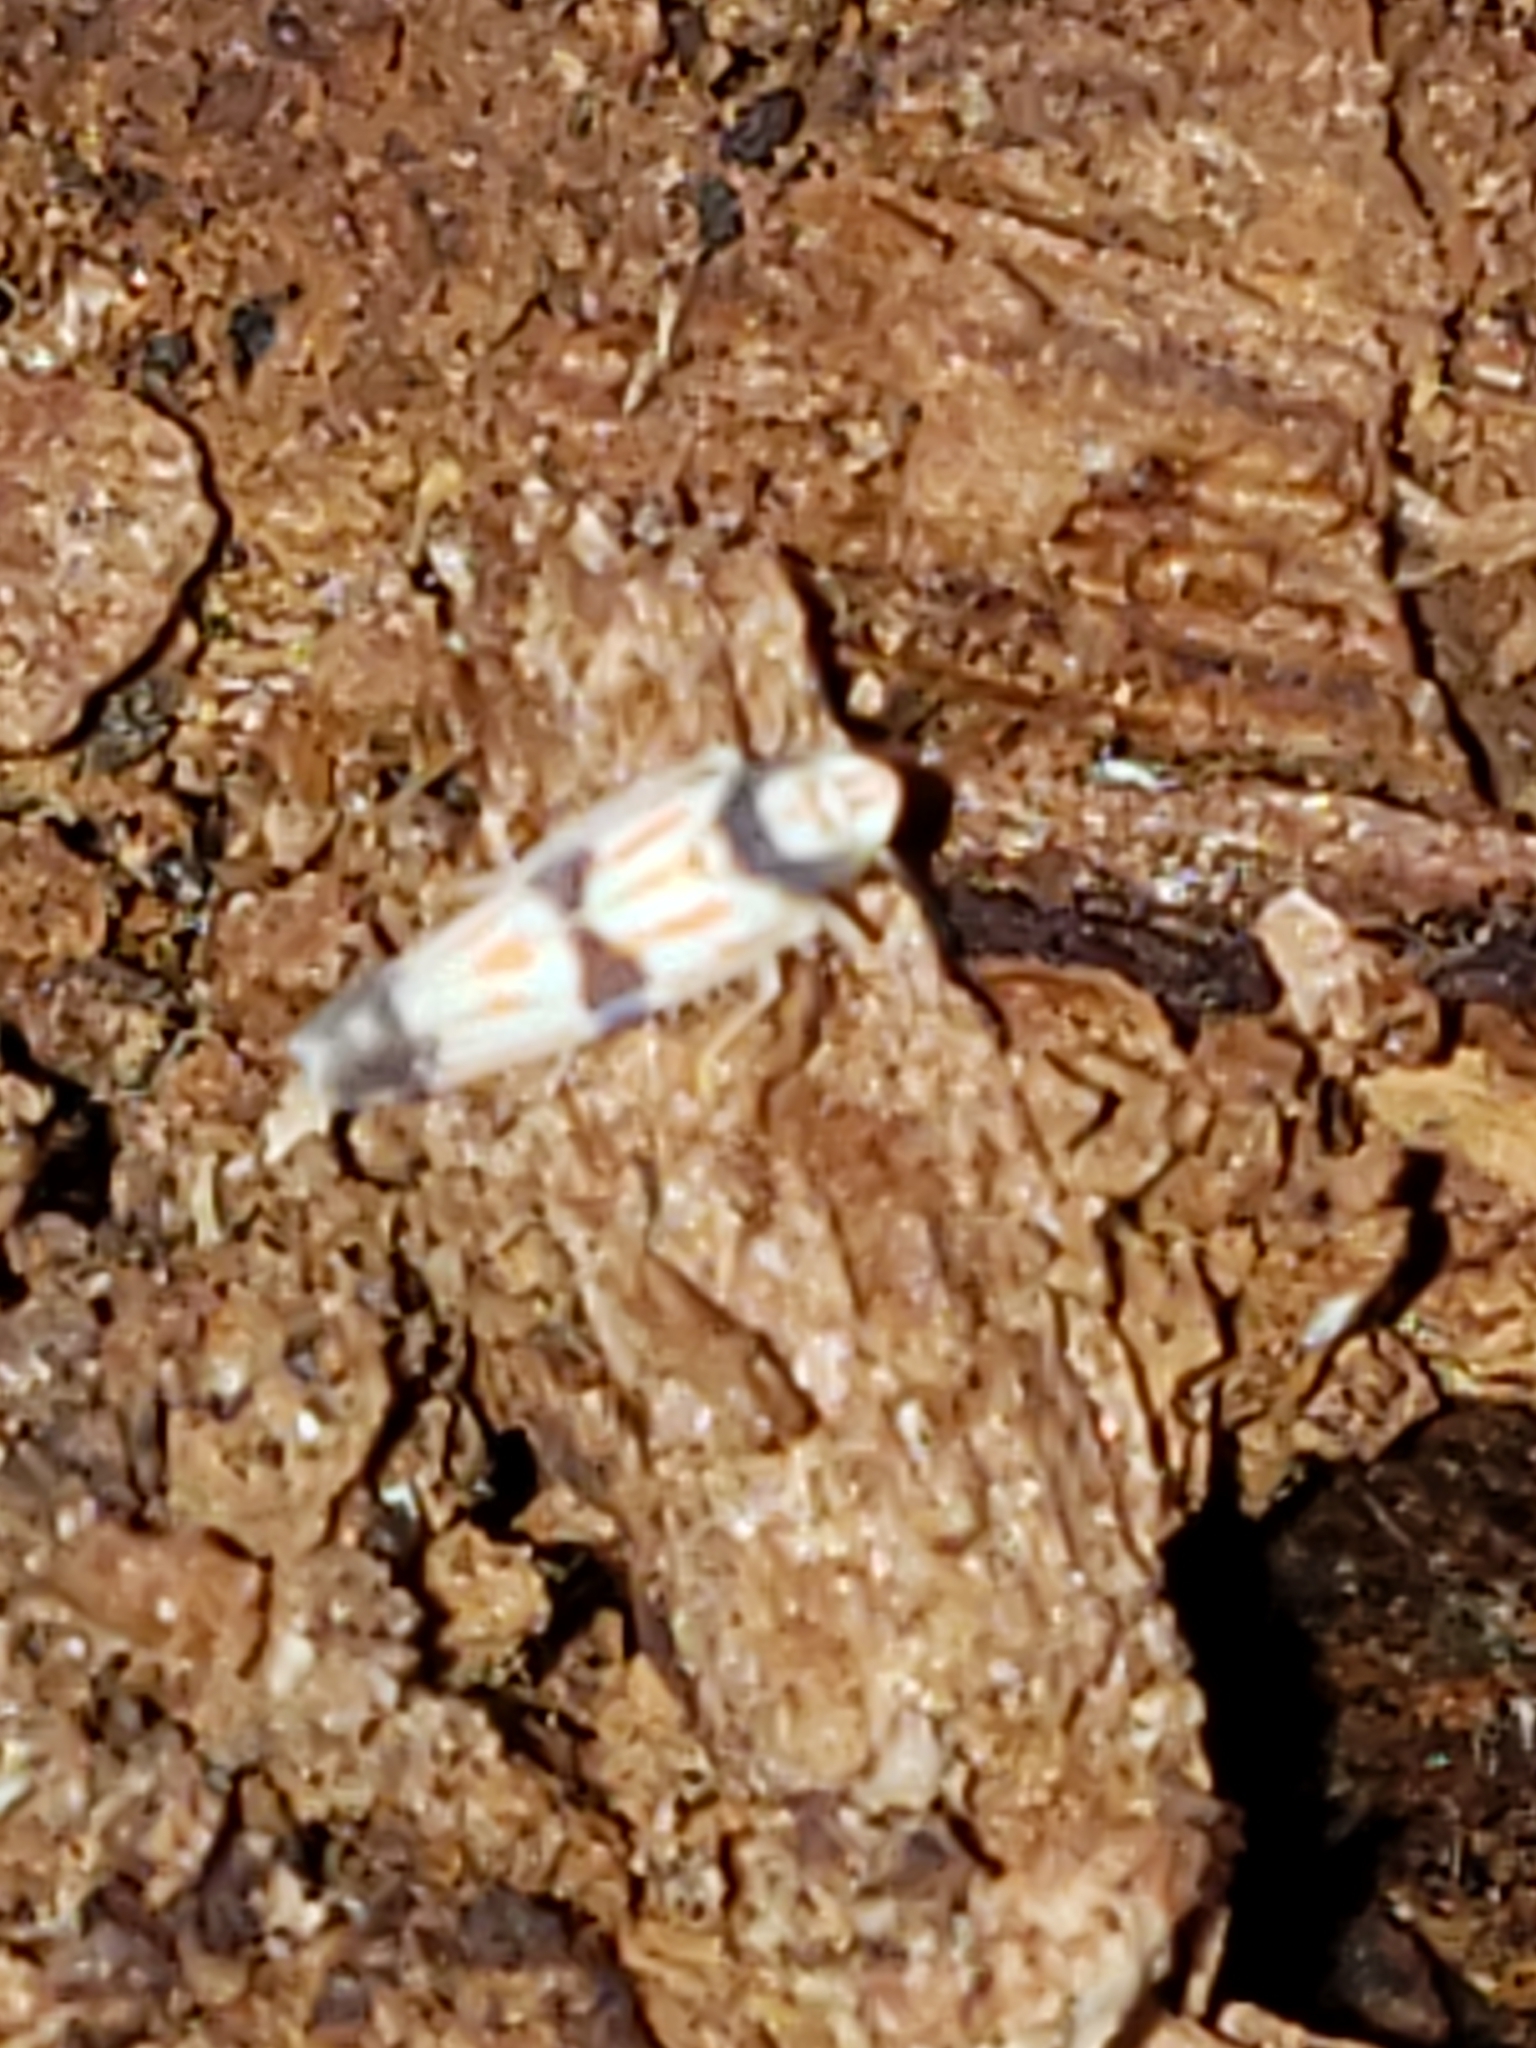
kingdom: Animalia
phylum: Arthropoda
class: Insecta
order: Hemiptera
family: Cicadellidae
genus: Erythroneura
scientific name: Erythroneura calycula
